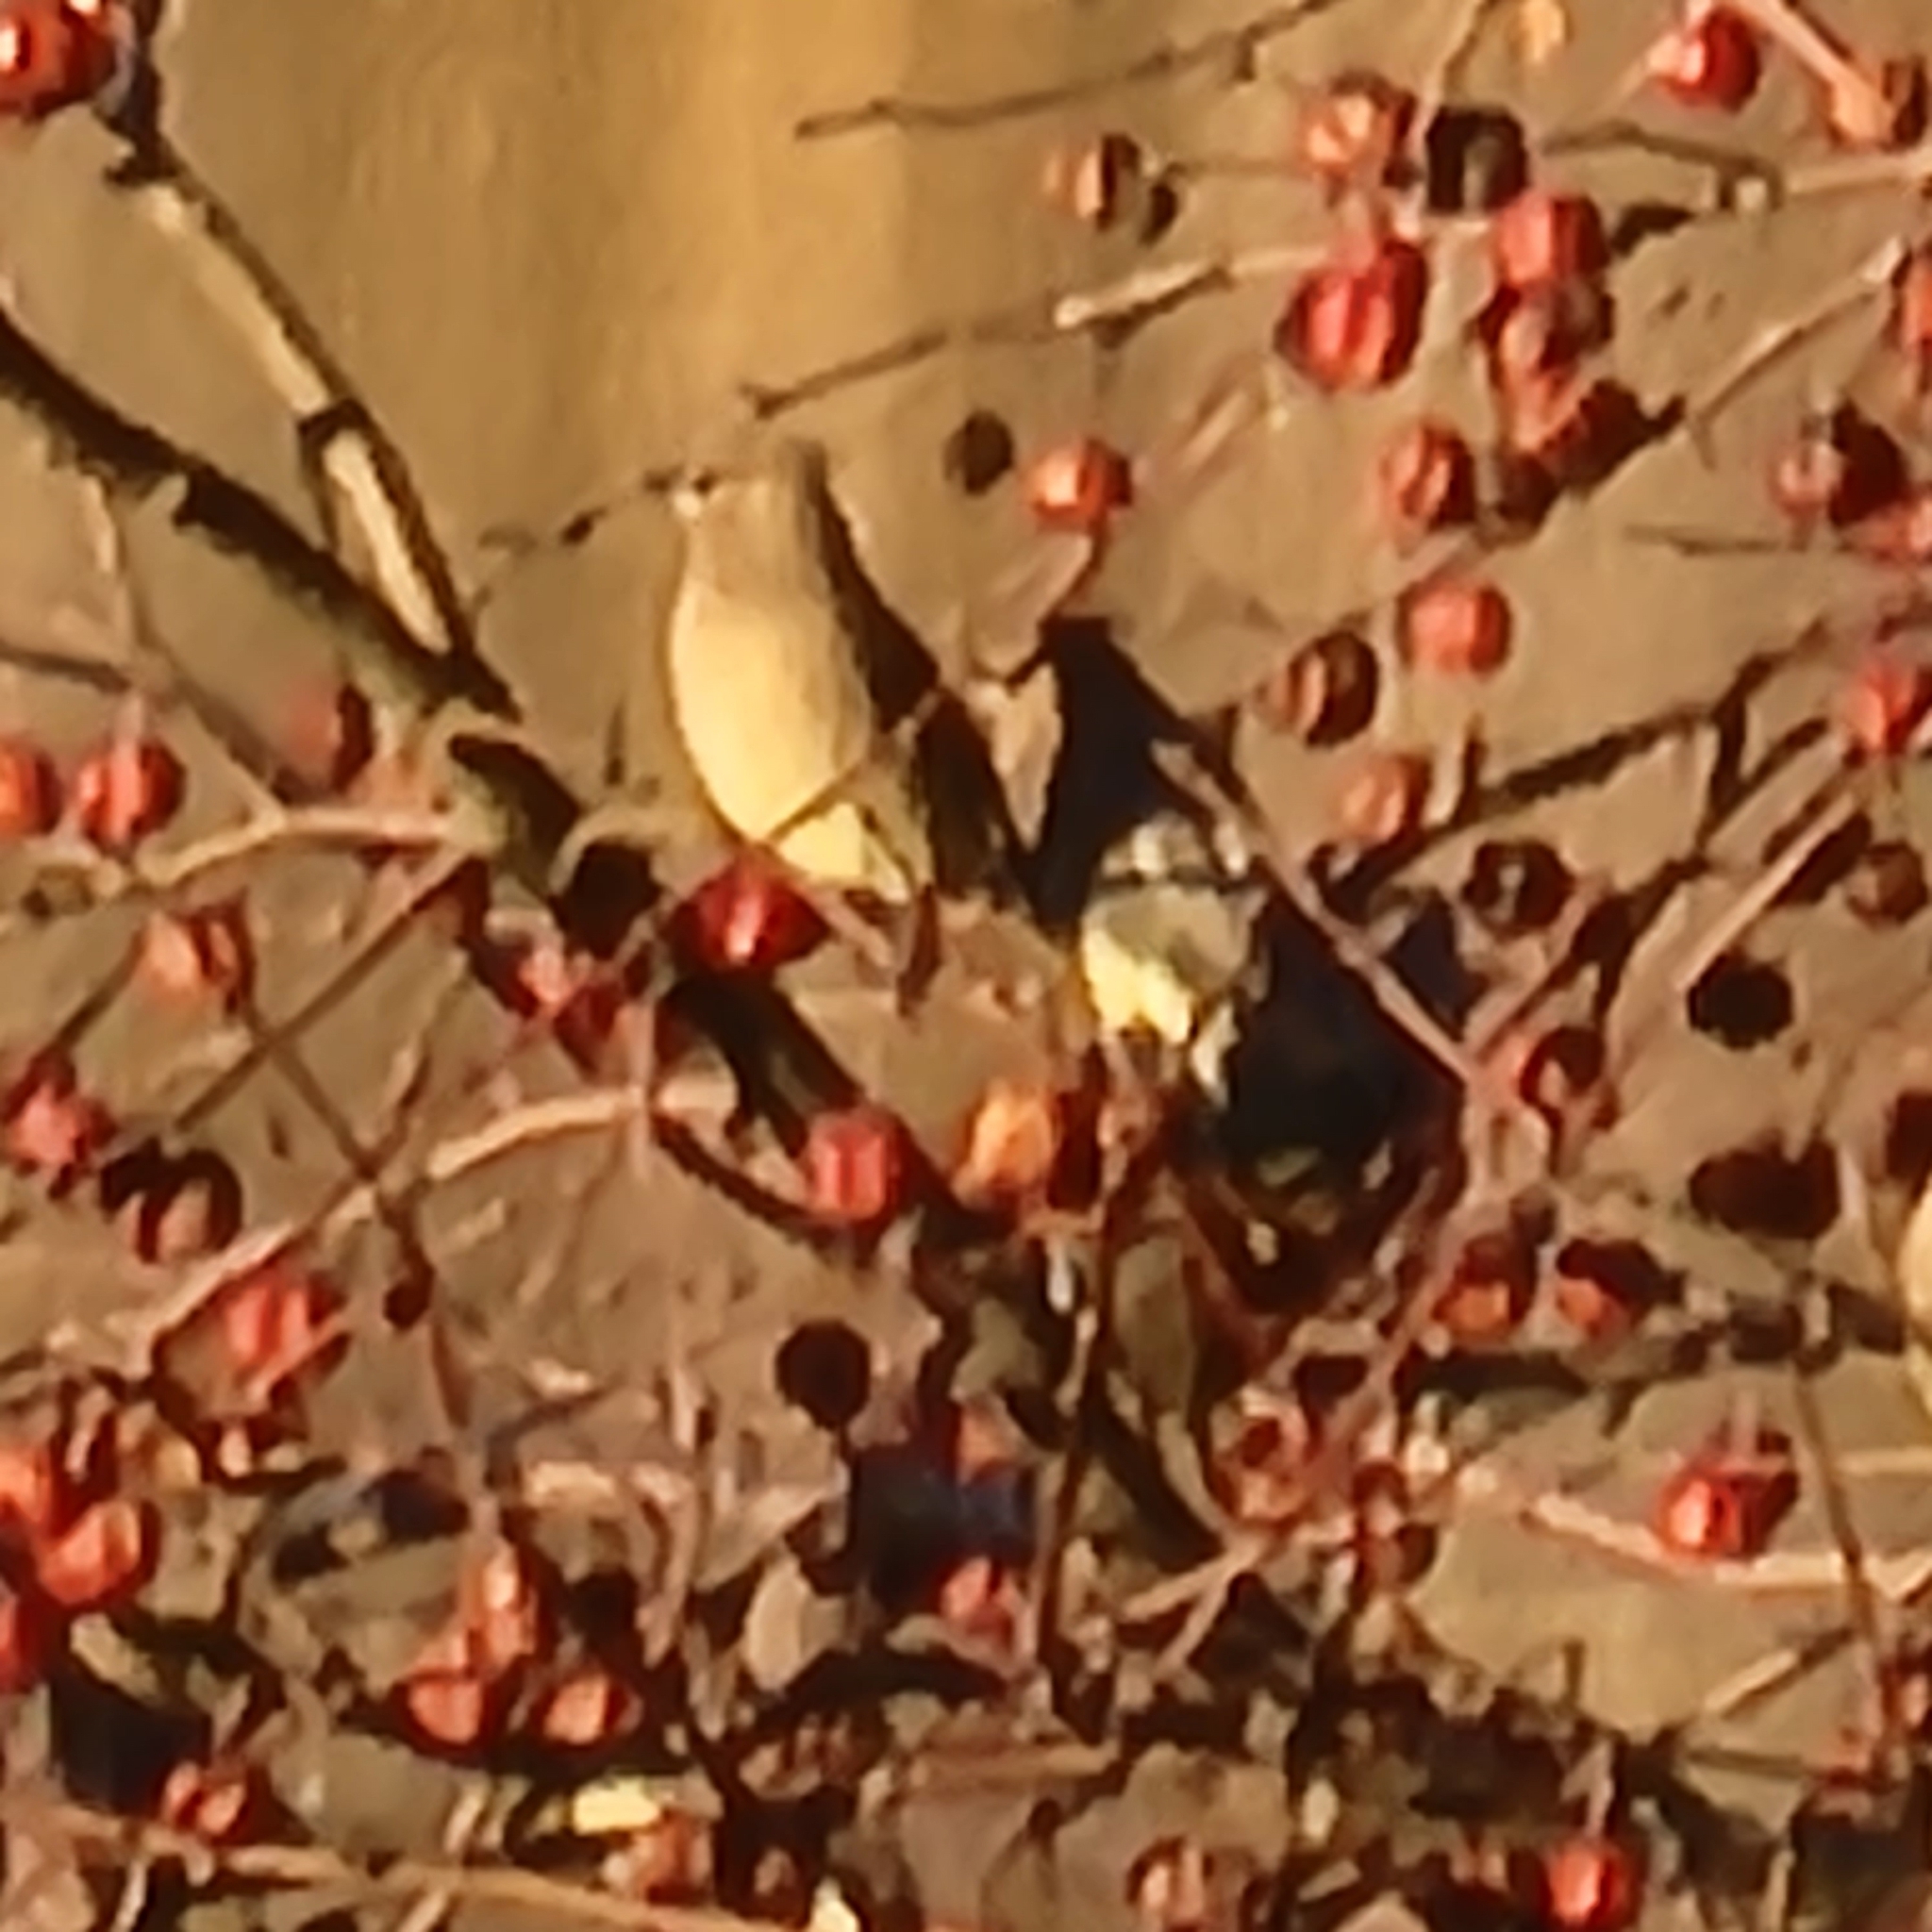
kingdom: Animalia
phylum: Chordata
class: Aves
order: Passeriformes
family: Bombycillidae
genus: Bombycilla
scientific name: Bombycilla cedrorum
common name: Cedar waxwing
